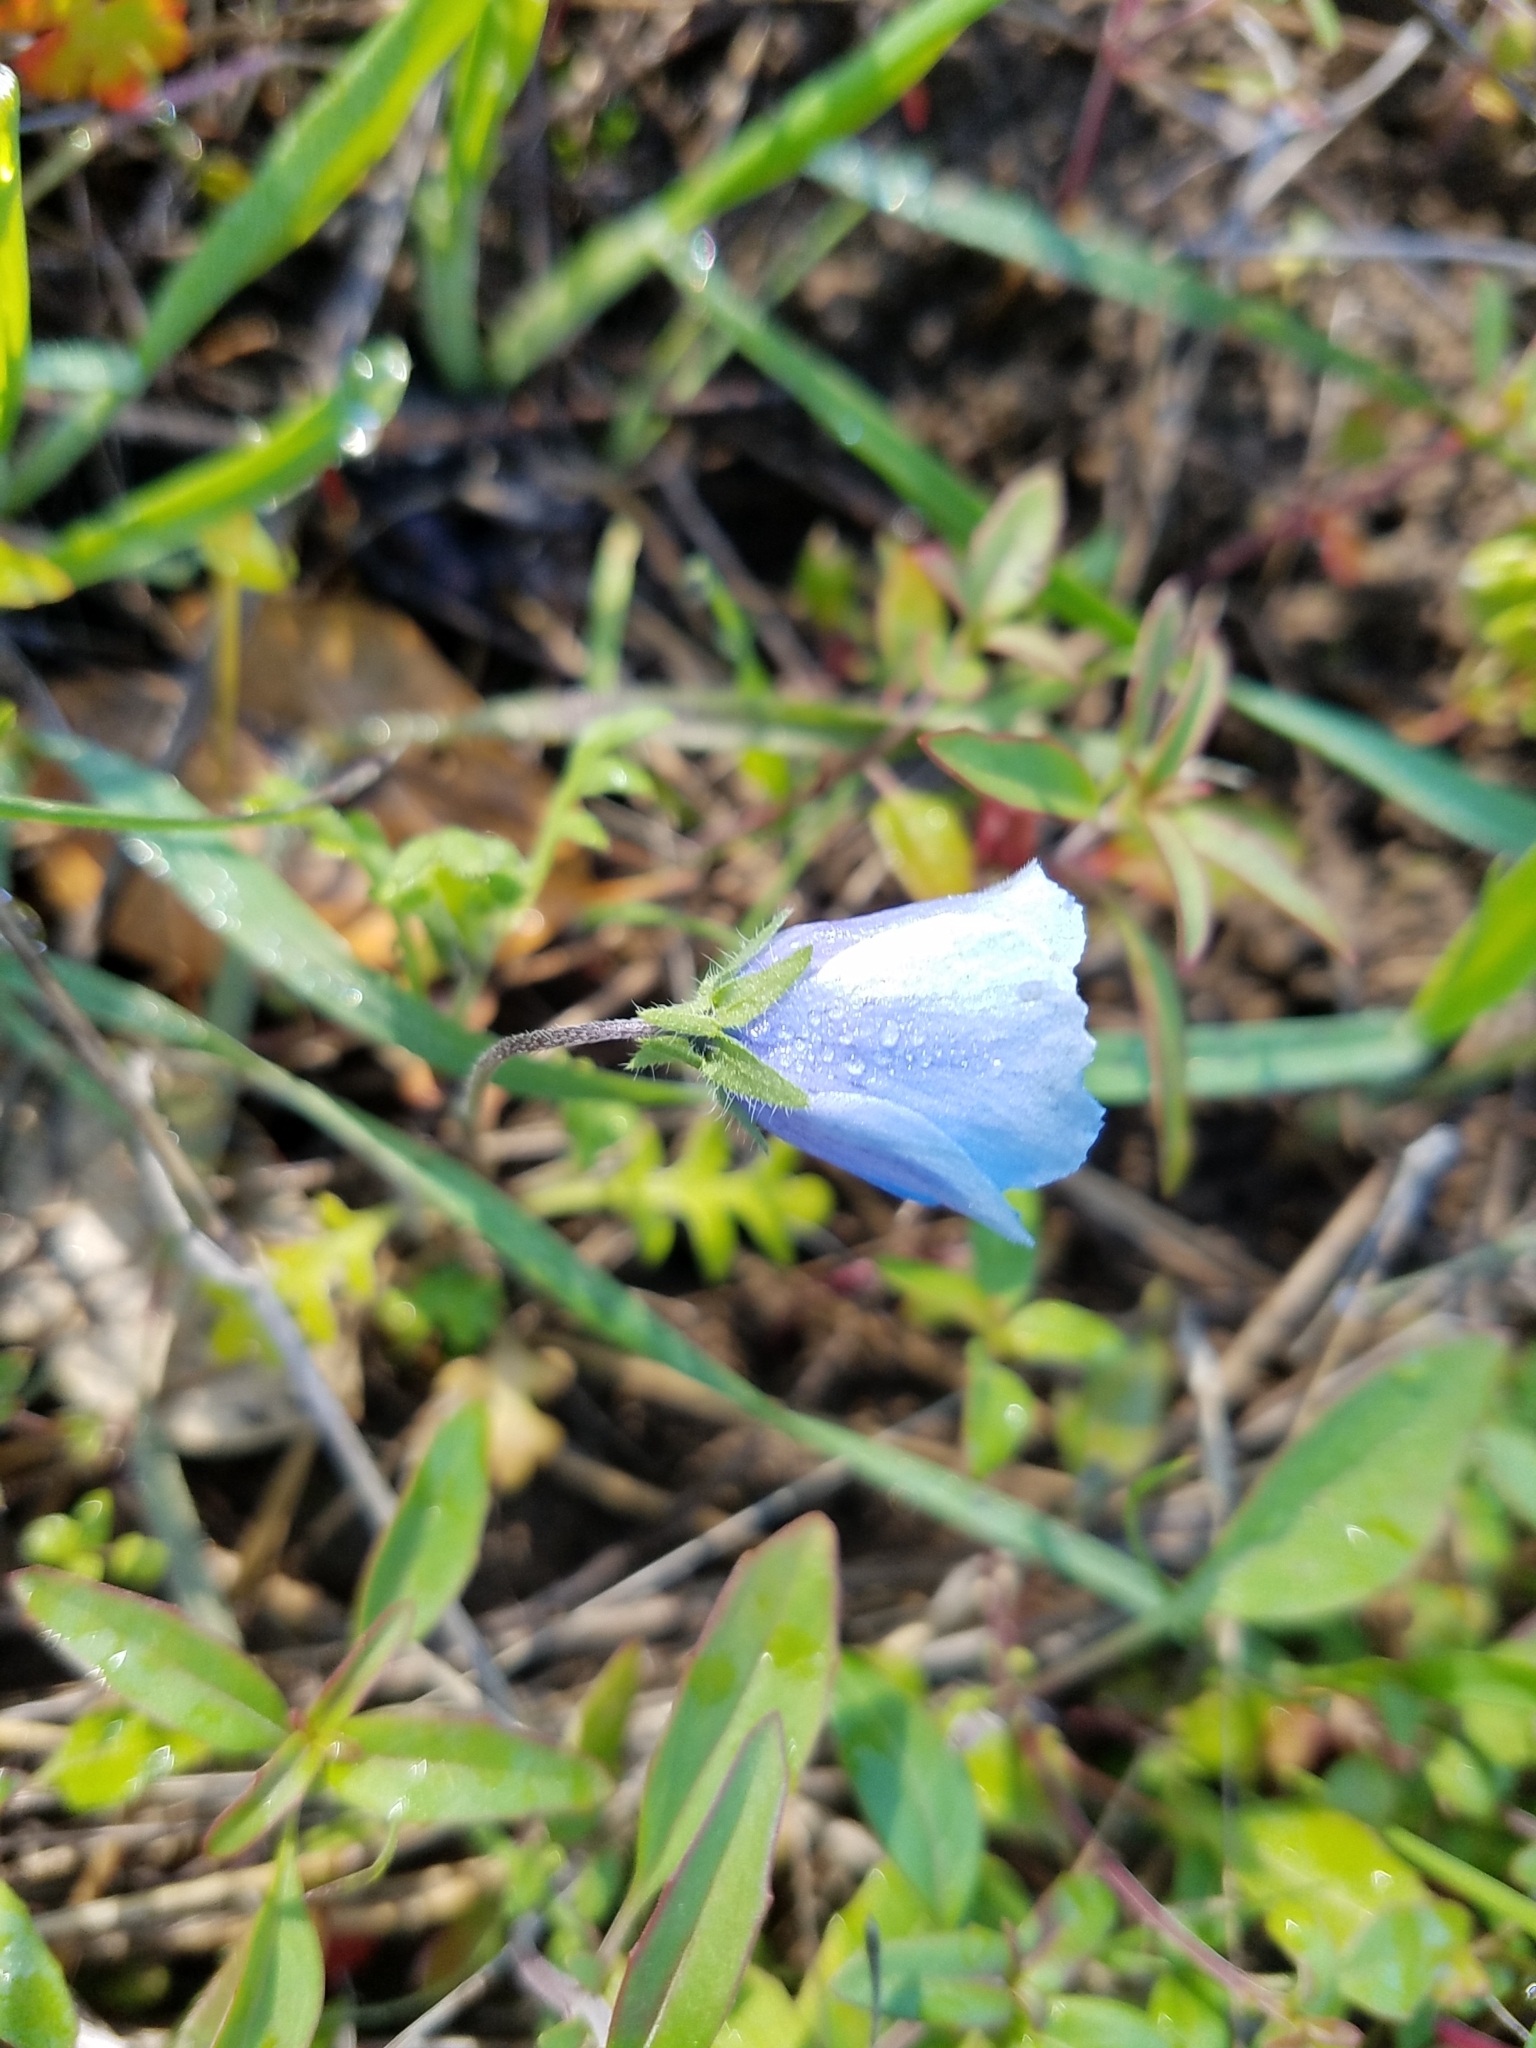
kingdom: Plantae
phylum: Tracheophyta
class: Magnoliopsida
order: Boraginales
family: Hydrophyllaceae
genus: Nemophila
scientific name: Nemophila menziesii
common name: Baby's-blue-eyes
